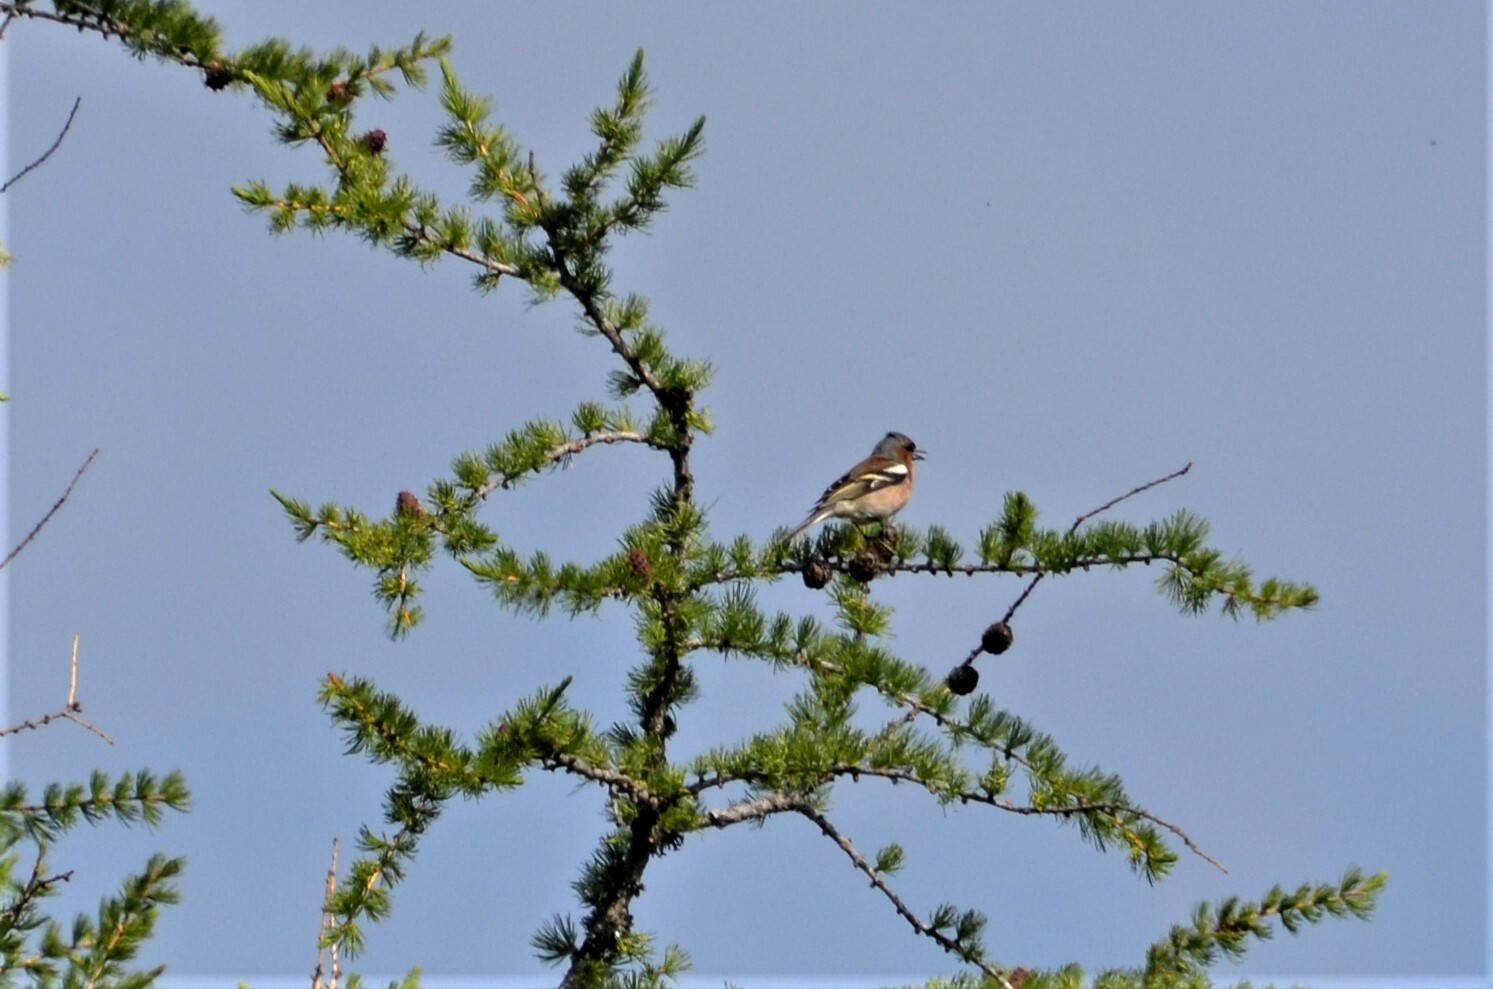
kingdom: Animalia
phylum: Chordata
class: Aves
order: Passeriformes
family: Fringillidae
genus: Fringilla
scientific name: Fringilla coelebs
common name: Common chaffinch
